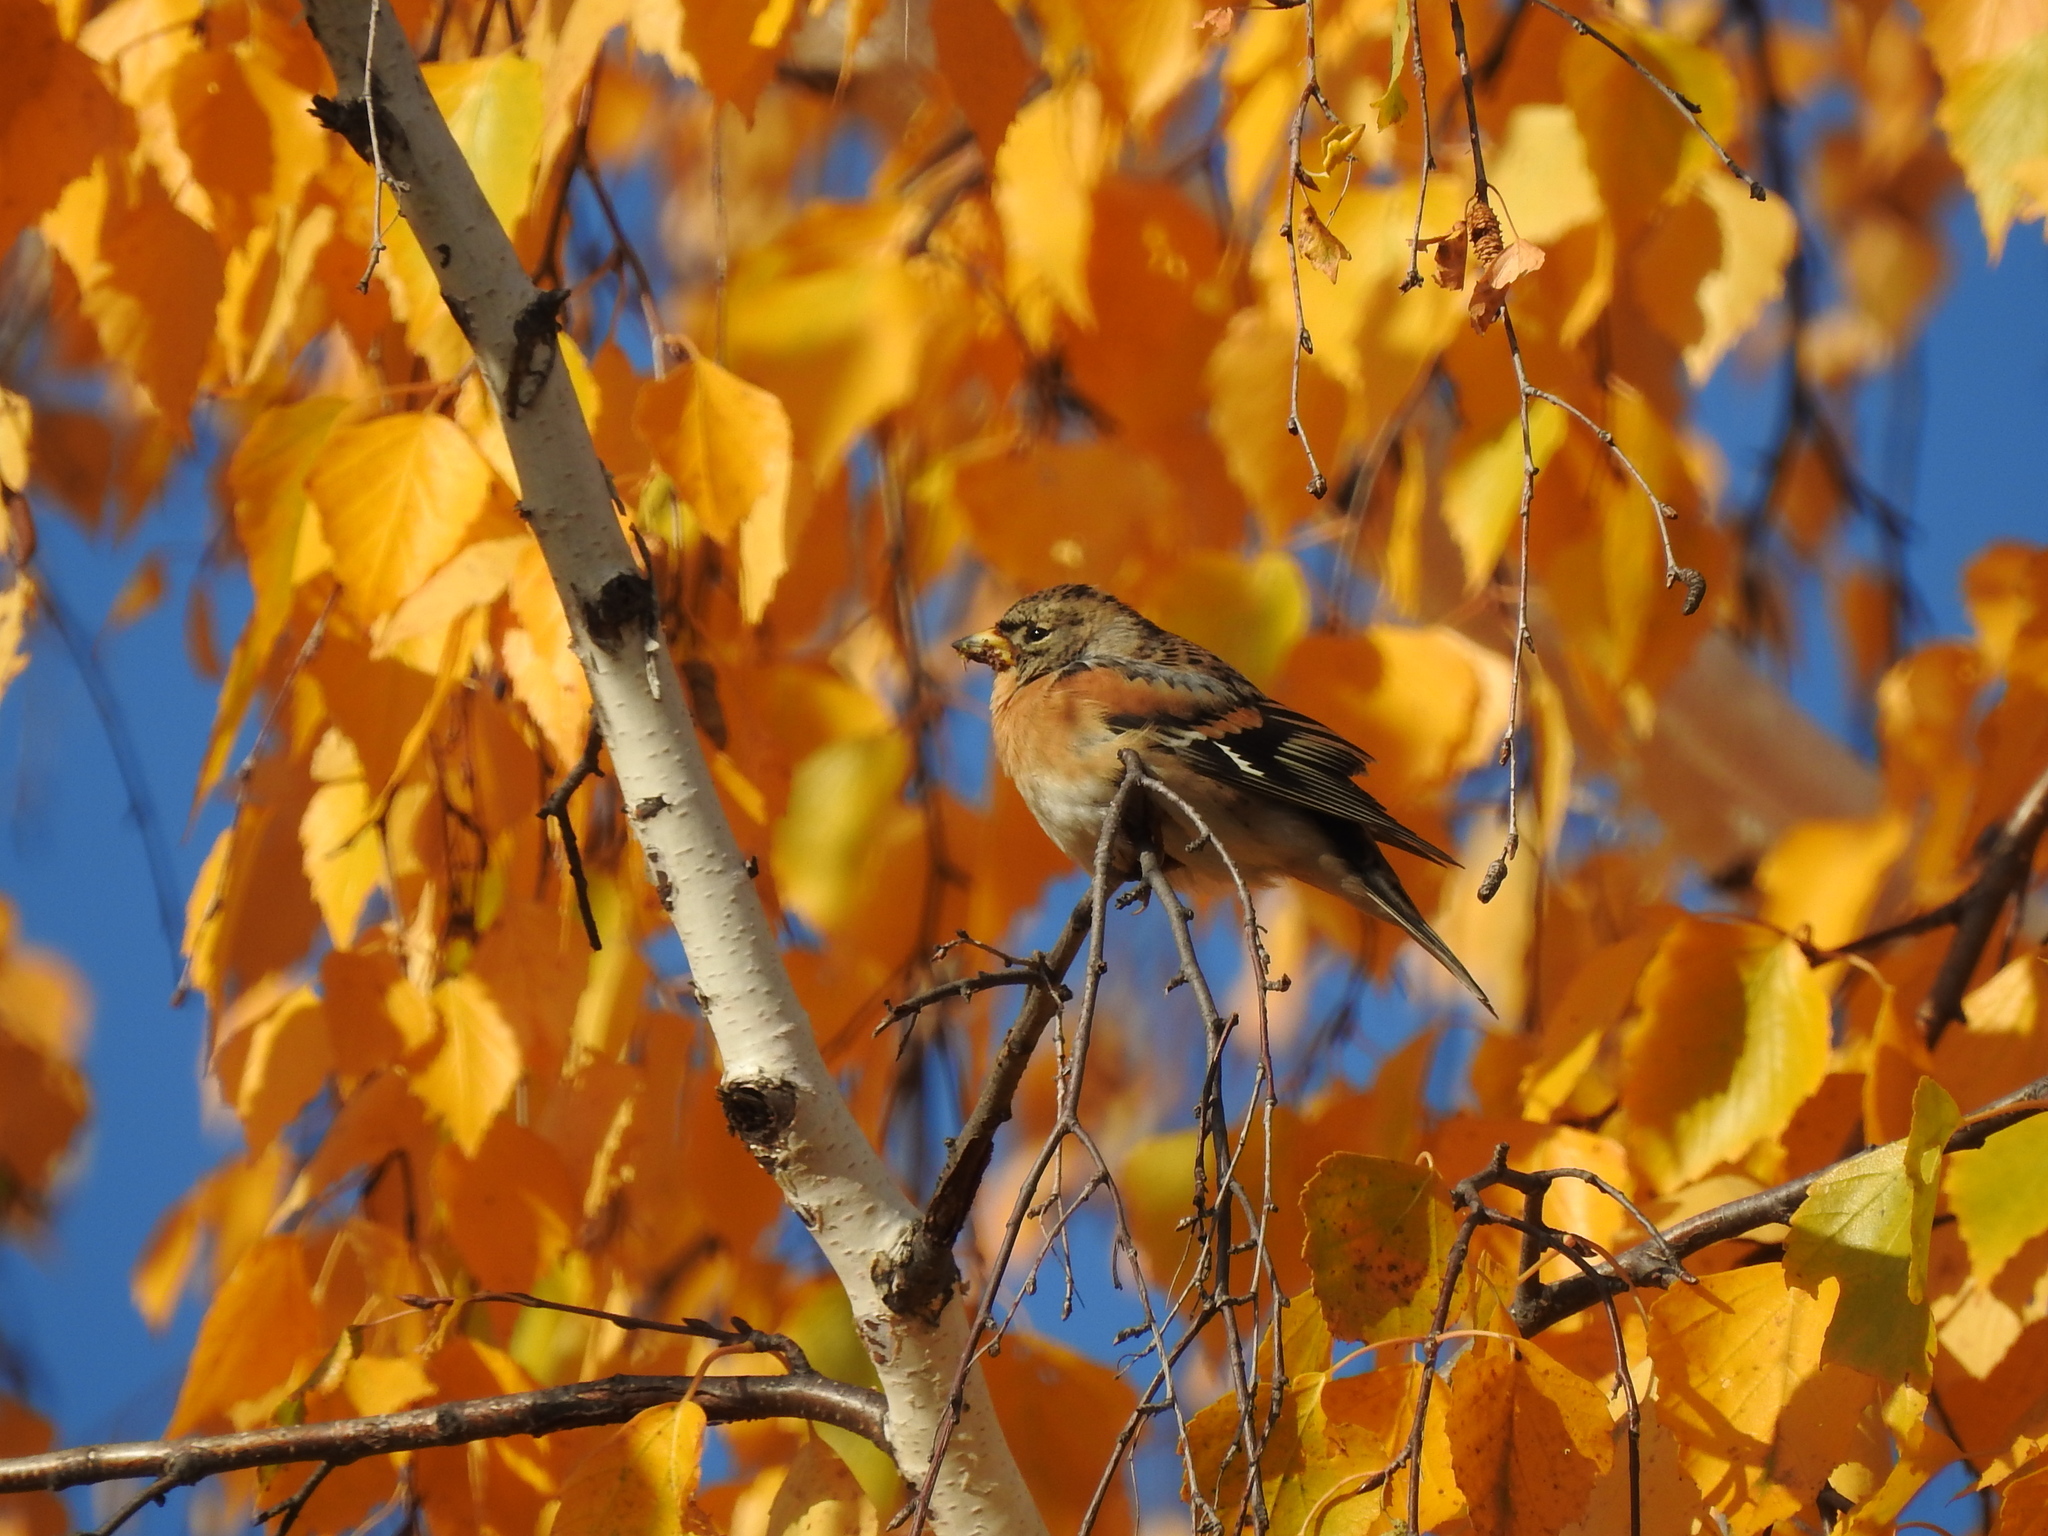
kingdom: Animalia
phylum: Chordata
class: Aves
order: Passeriformes
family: Fringillidae
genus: Fringilla
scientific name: Fringilla montifringilla
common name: Brambling
